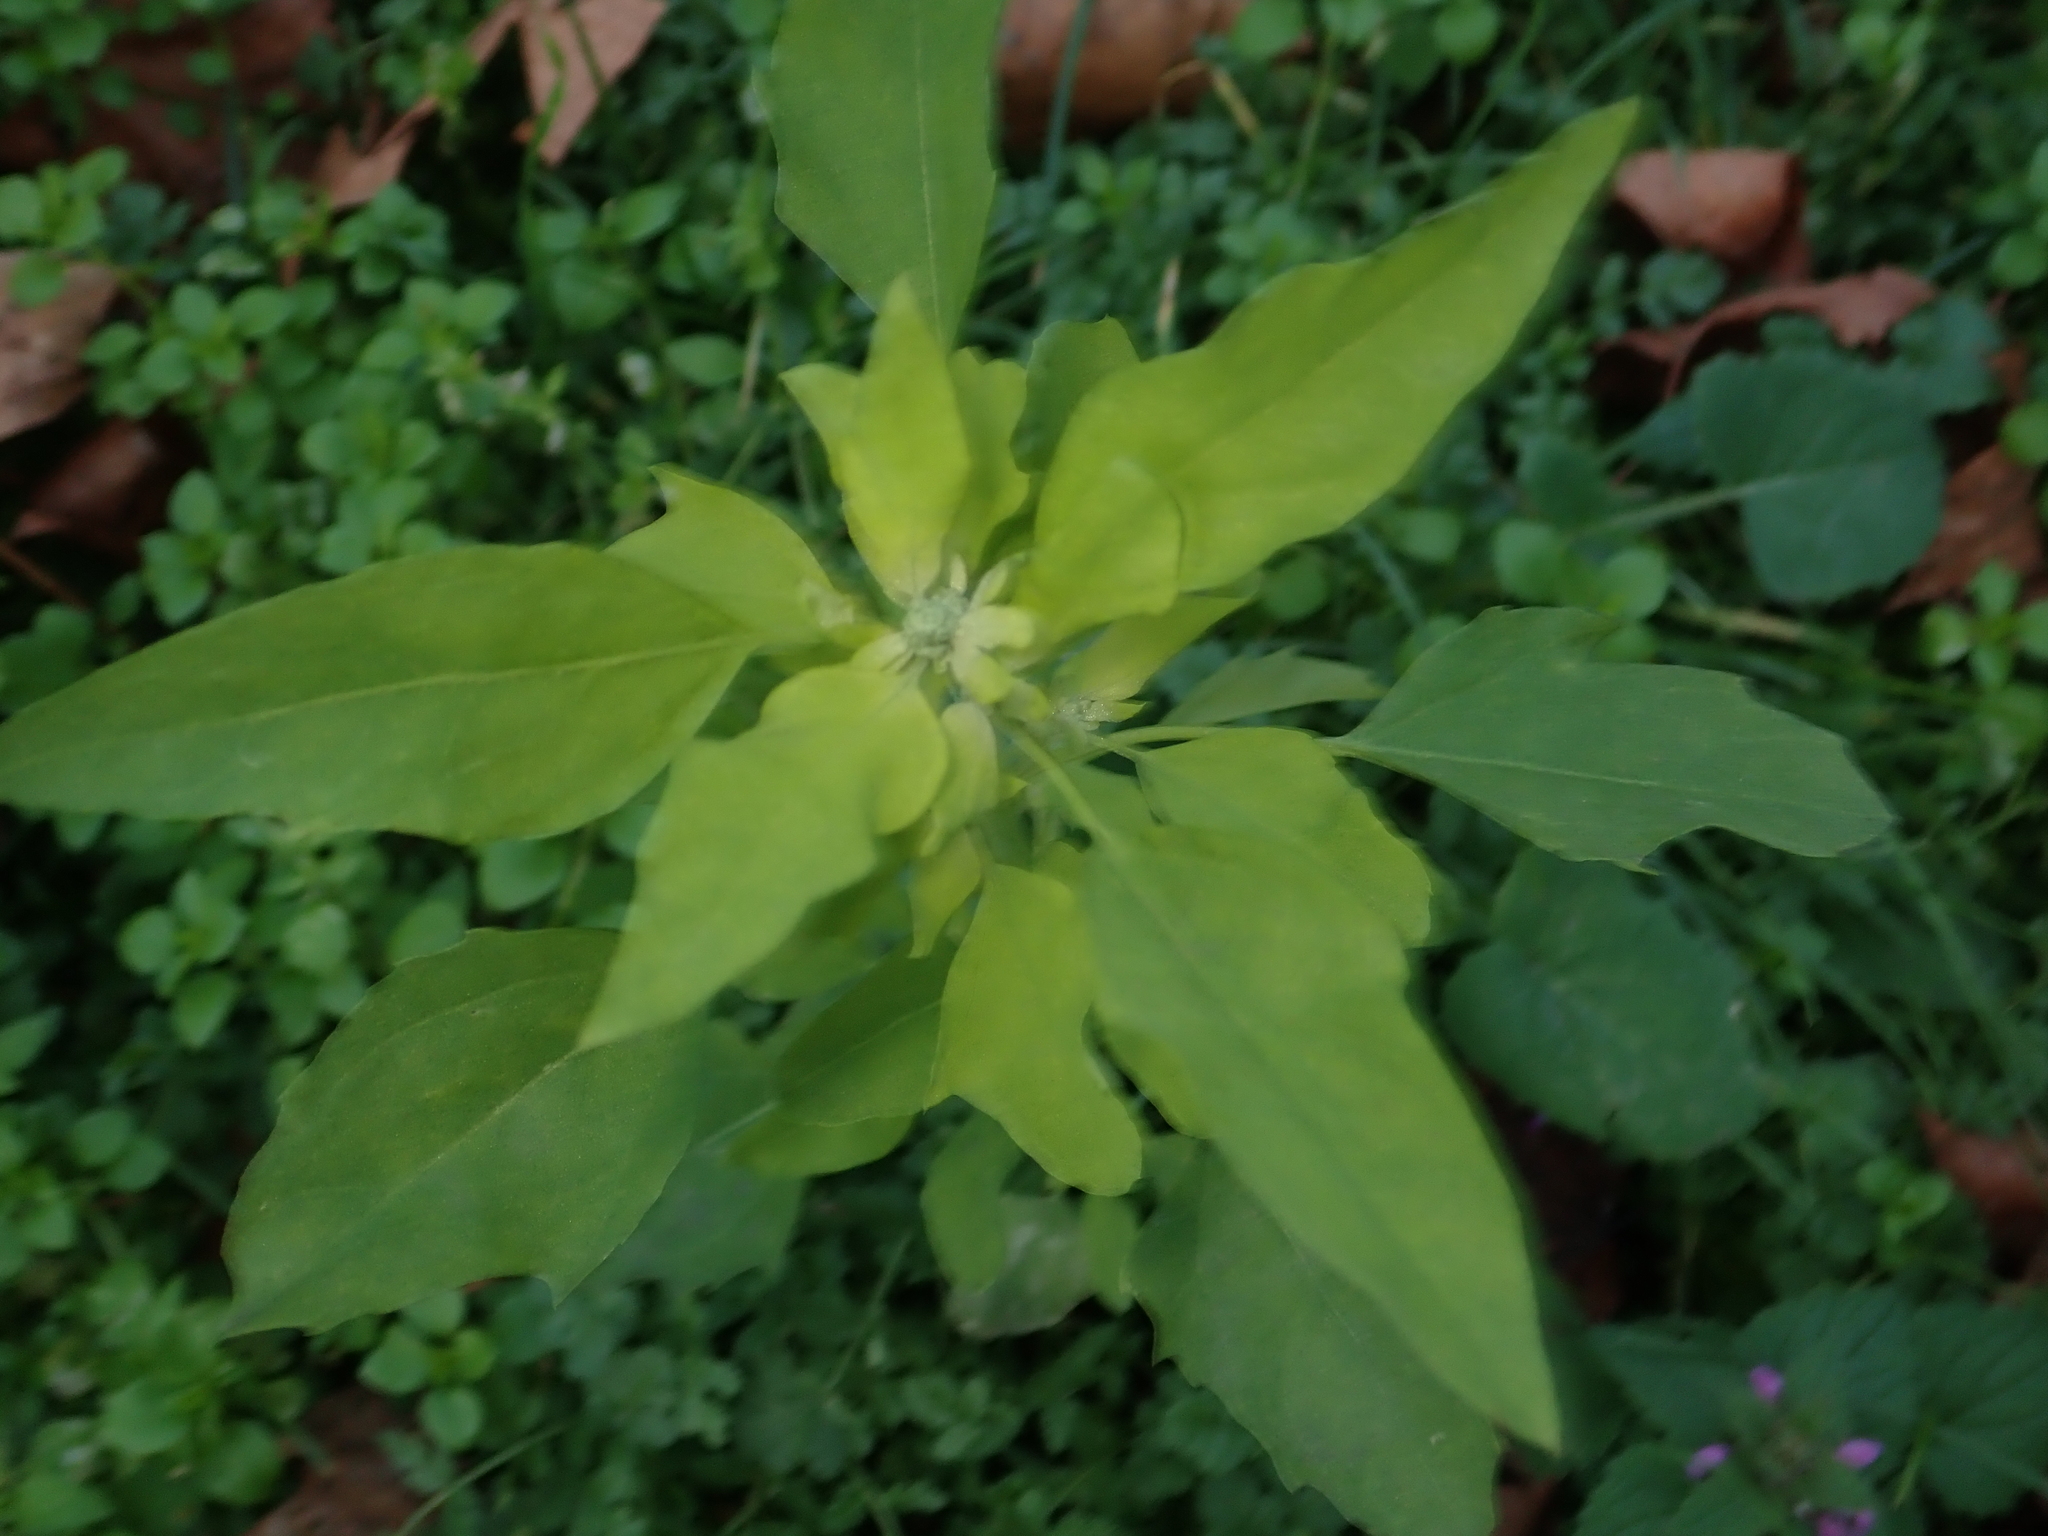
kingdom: Plantae
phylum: Tracheophyta
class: Magnoliopsida
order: Ranunculales
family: Papaveraceae
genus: Chelidonium
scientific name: Chelidonium majus
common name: Greater celandine
